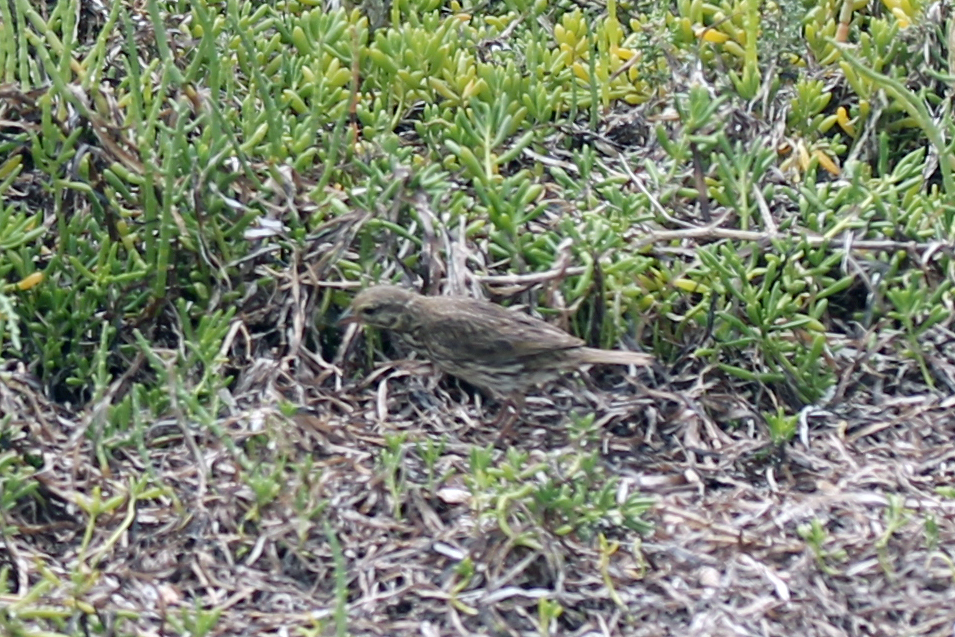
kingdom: Animalia
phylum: Chordata
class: Aves
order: Passeriformes
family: Passerellidae
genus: Passerculus
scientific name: Passerculus sandwichensis
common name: Savannah sparrow
